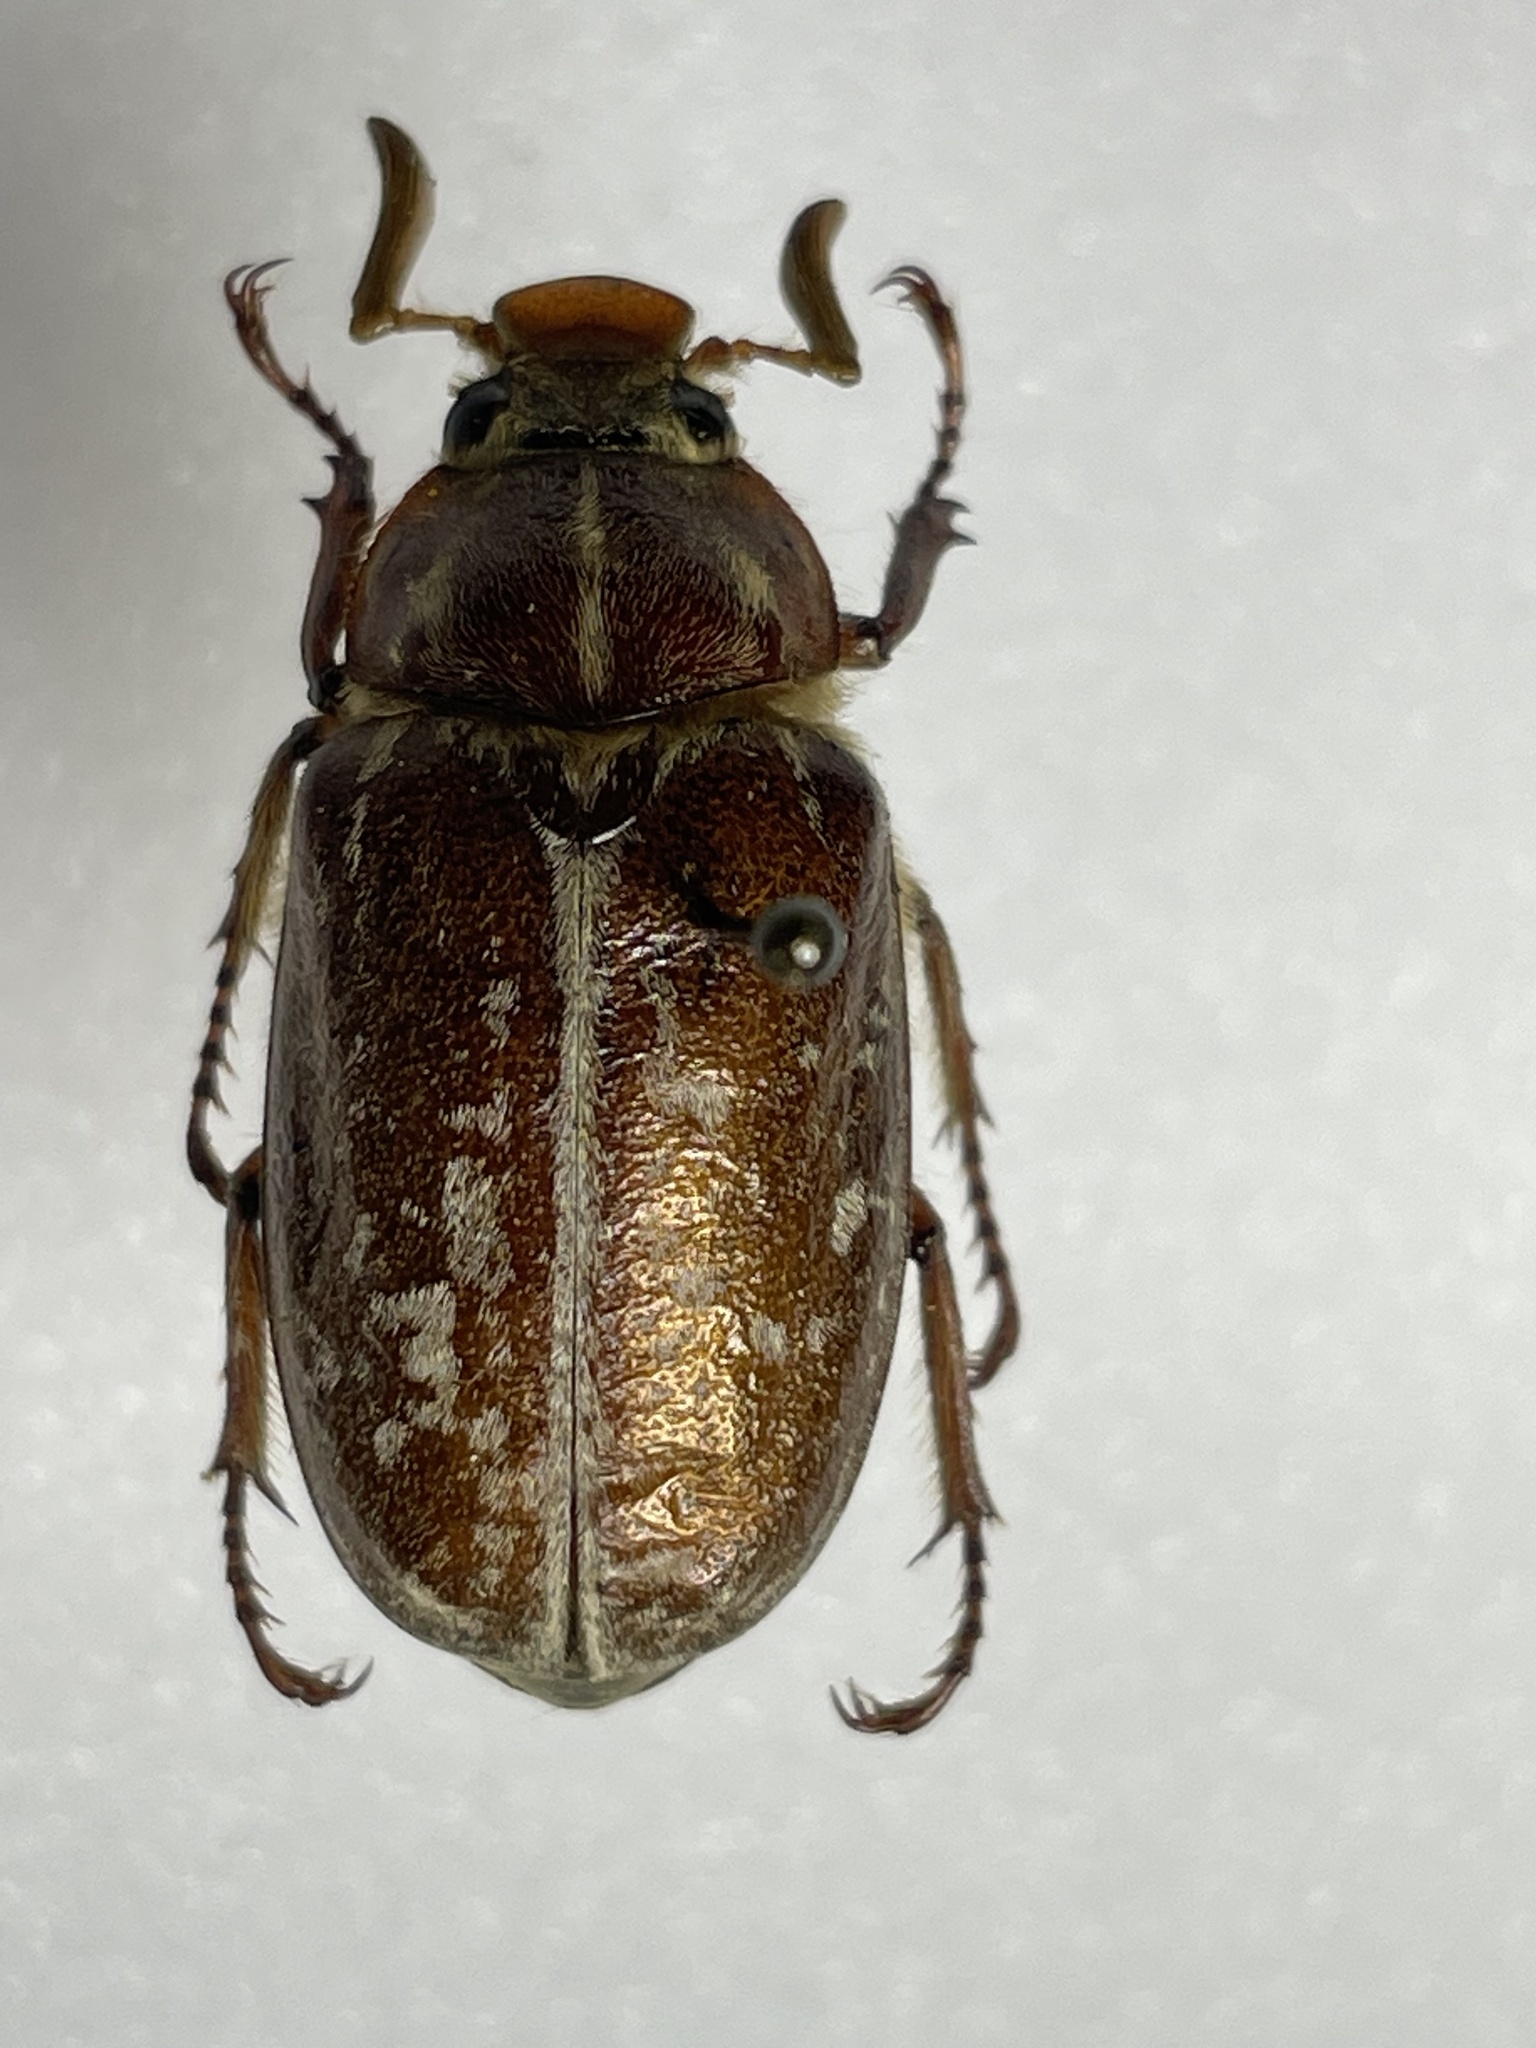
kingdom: Animalia
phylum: Arthropoda
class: Insecta
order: Coleoptera
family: Scarabaeidae
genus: Polyphylla
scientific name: Polyphylla variolosa
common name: Variegated june beetle
